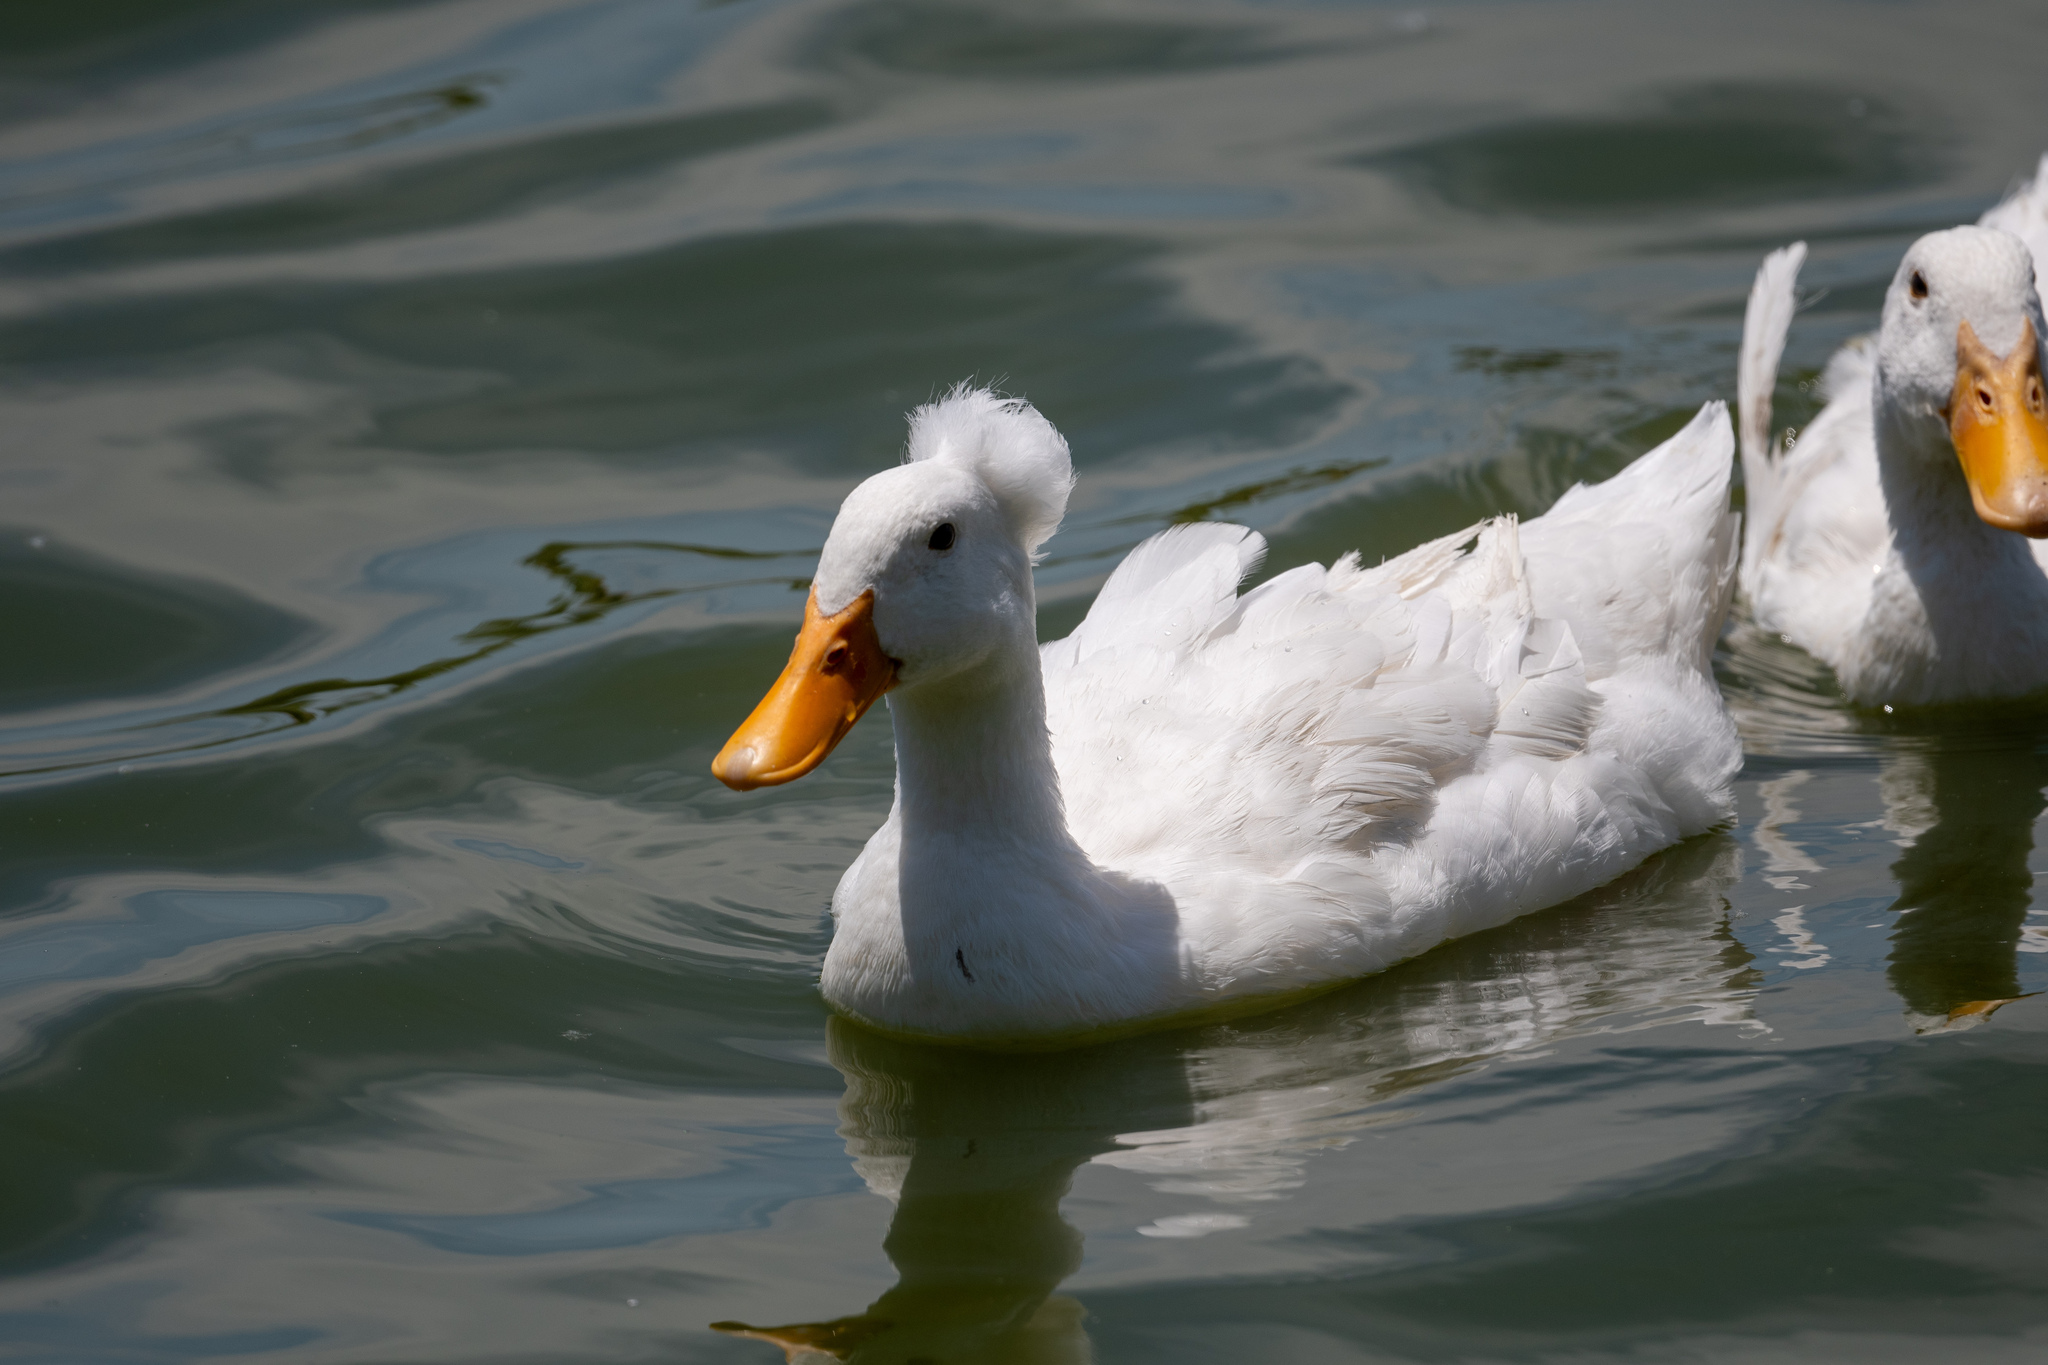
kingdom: Animalia
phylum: Chordata
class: Aves
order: Anseriformes
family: Anatidae
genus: Anas
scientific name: Anas platyrhynchos
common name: Mallard
